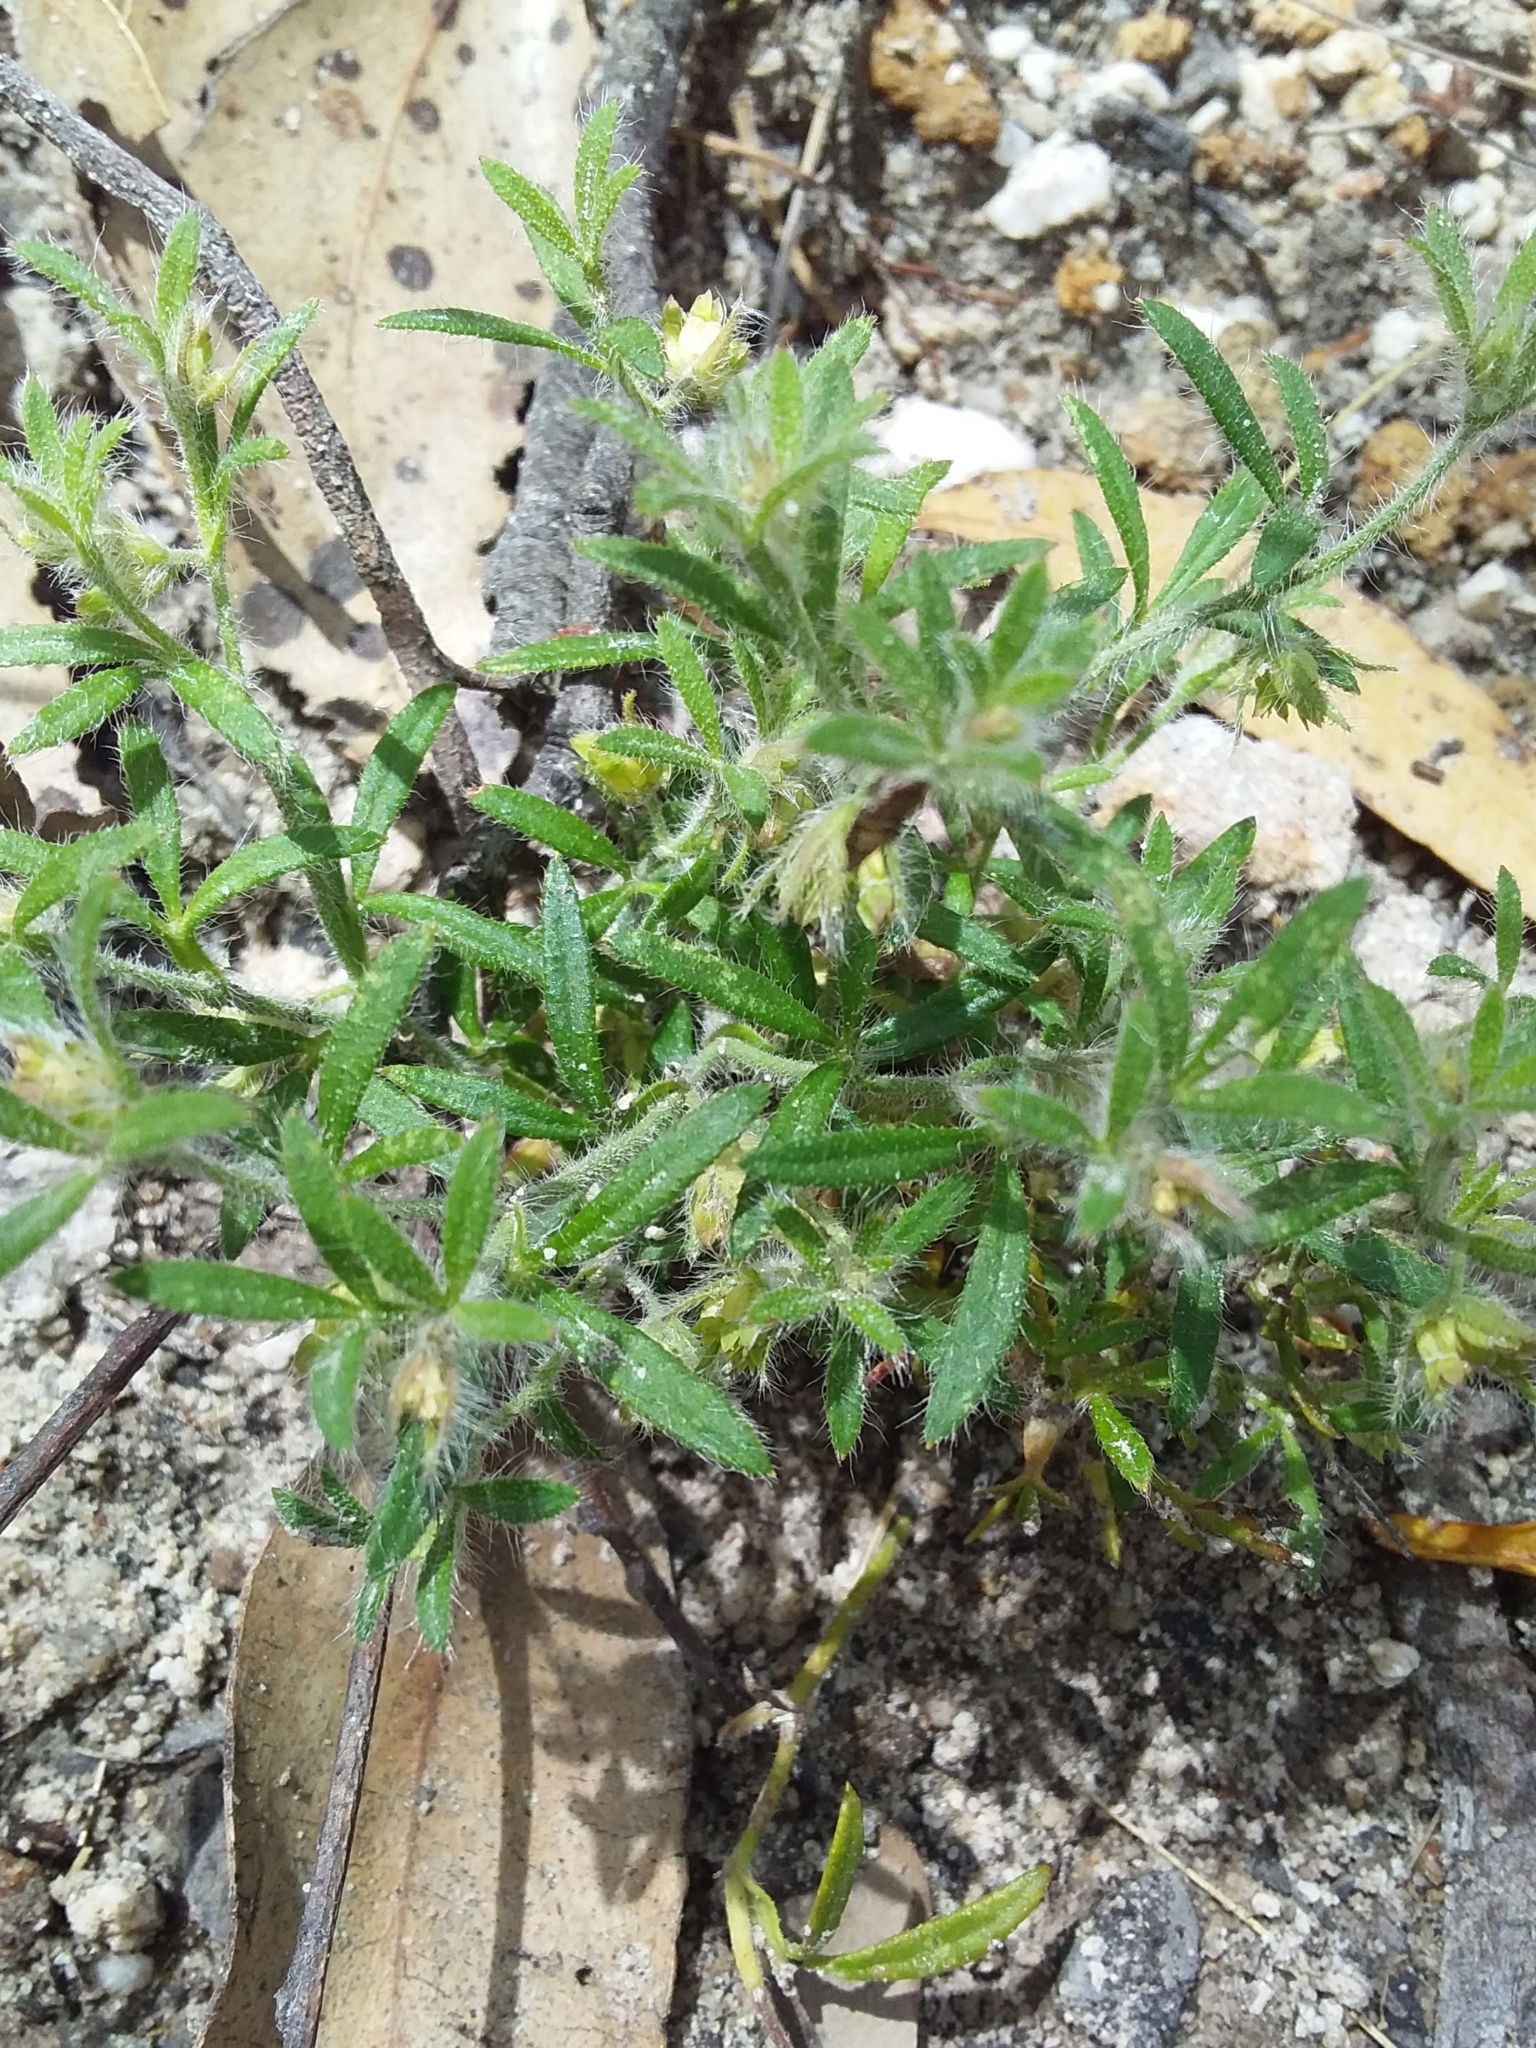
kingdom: Plantae
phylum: Tracheophyta
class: Magnoliopsida
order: Apiales
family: Apiaceae
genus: Xanthosia
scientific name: Xanthosia huegelii
